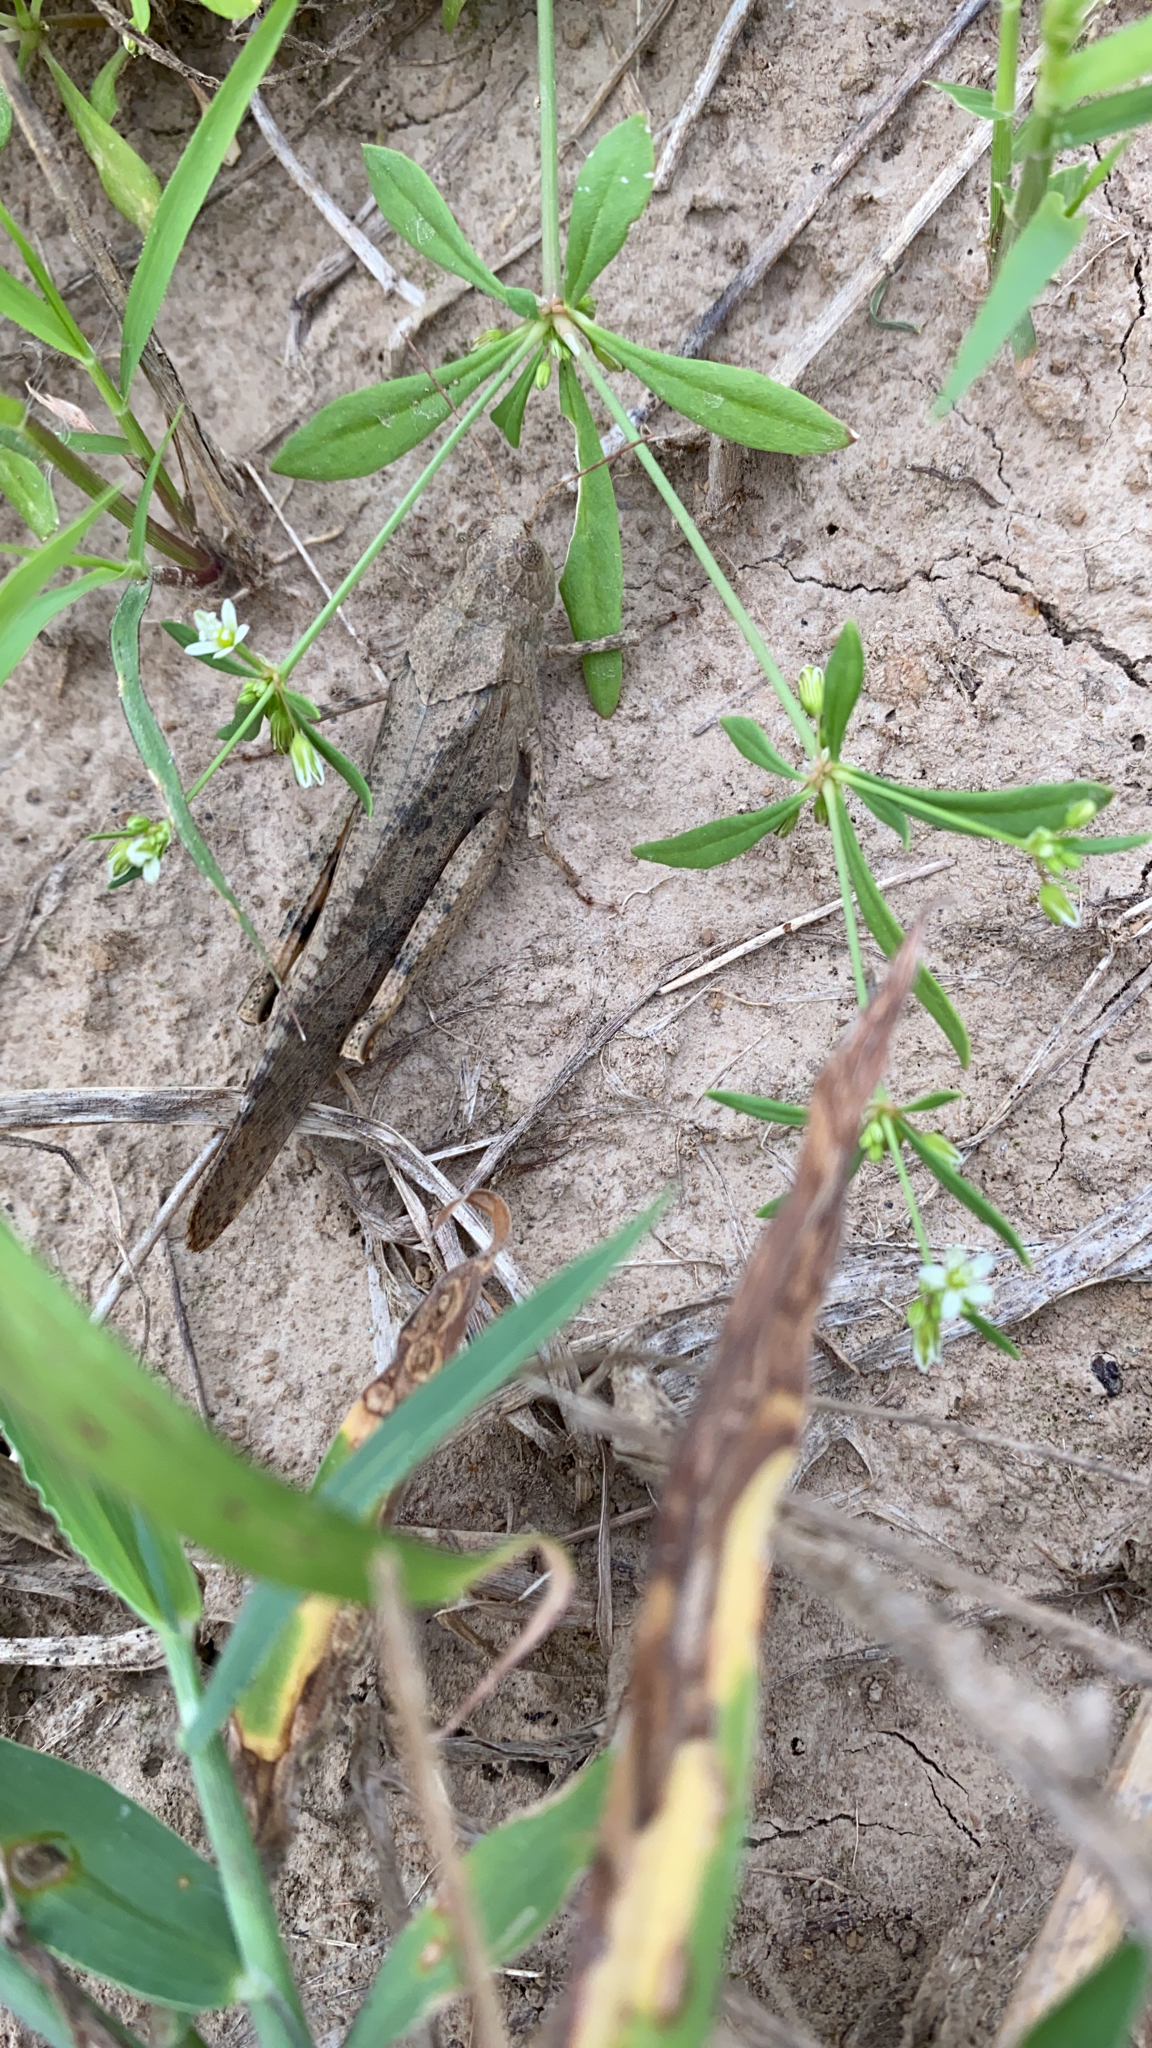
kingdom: Animalia
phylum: Arthropoda
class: Insecta
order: Orthoptera
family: Acrididae
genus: Dissosteira
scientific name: Dissosteira carolina
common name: Carolina grasshopper
